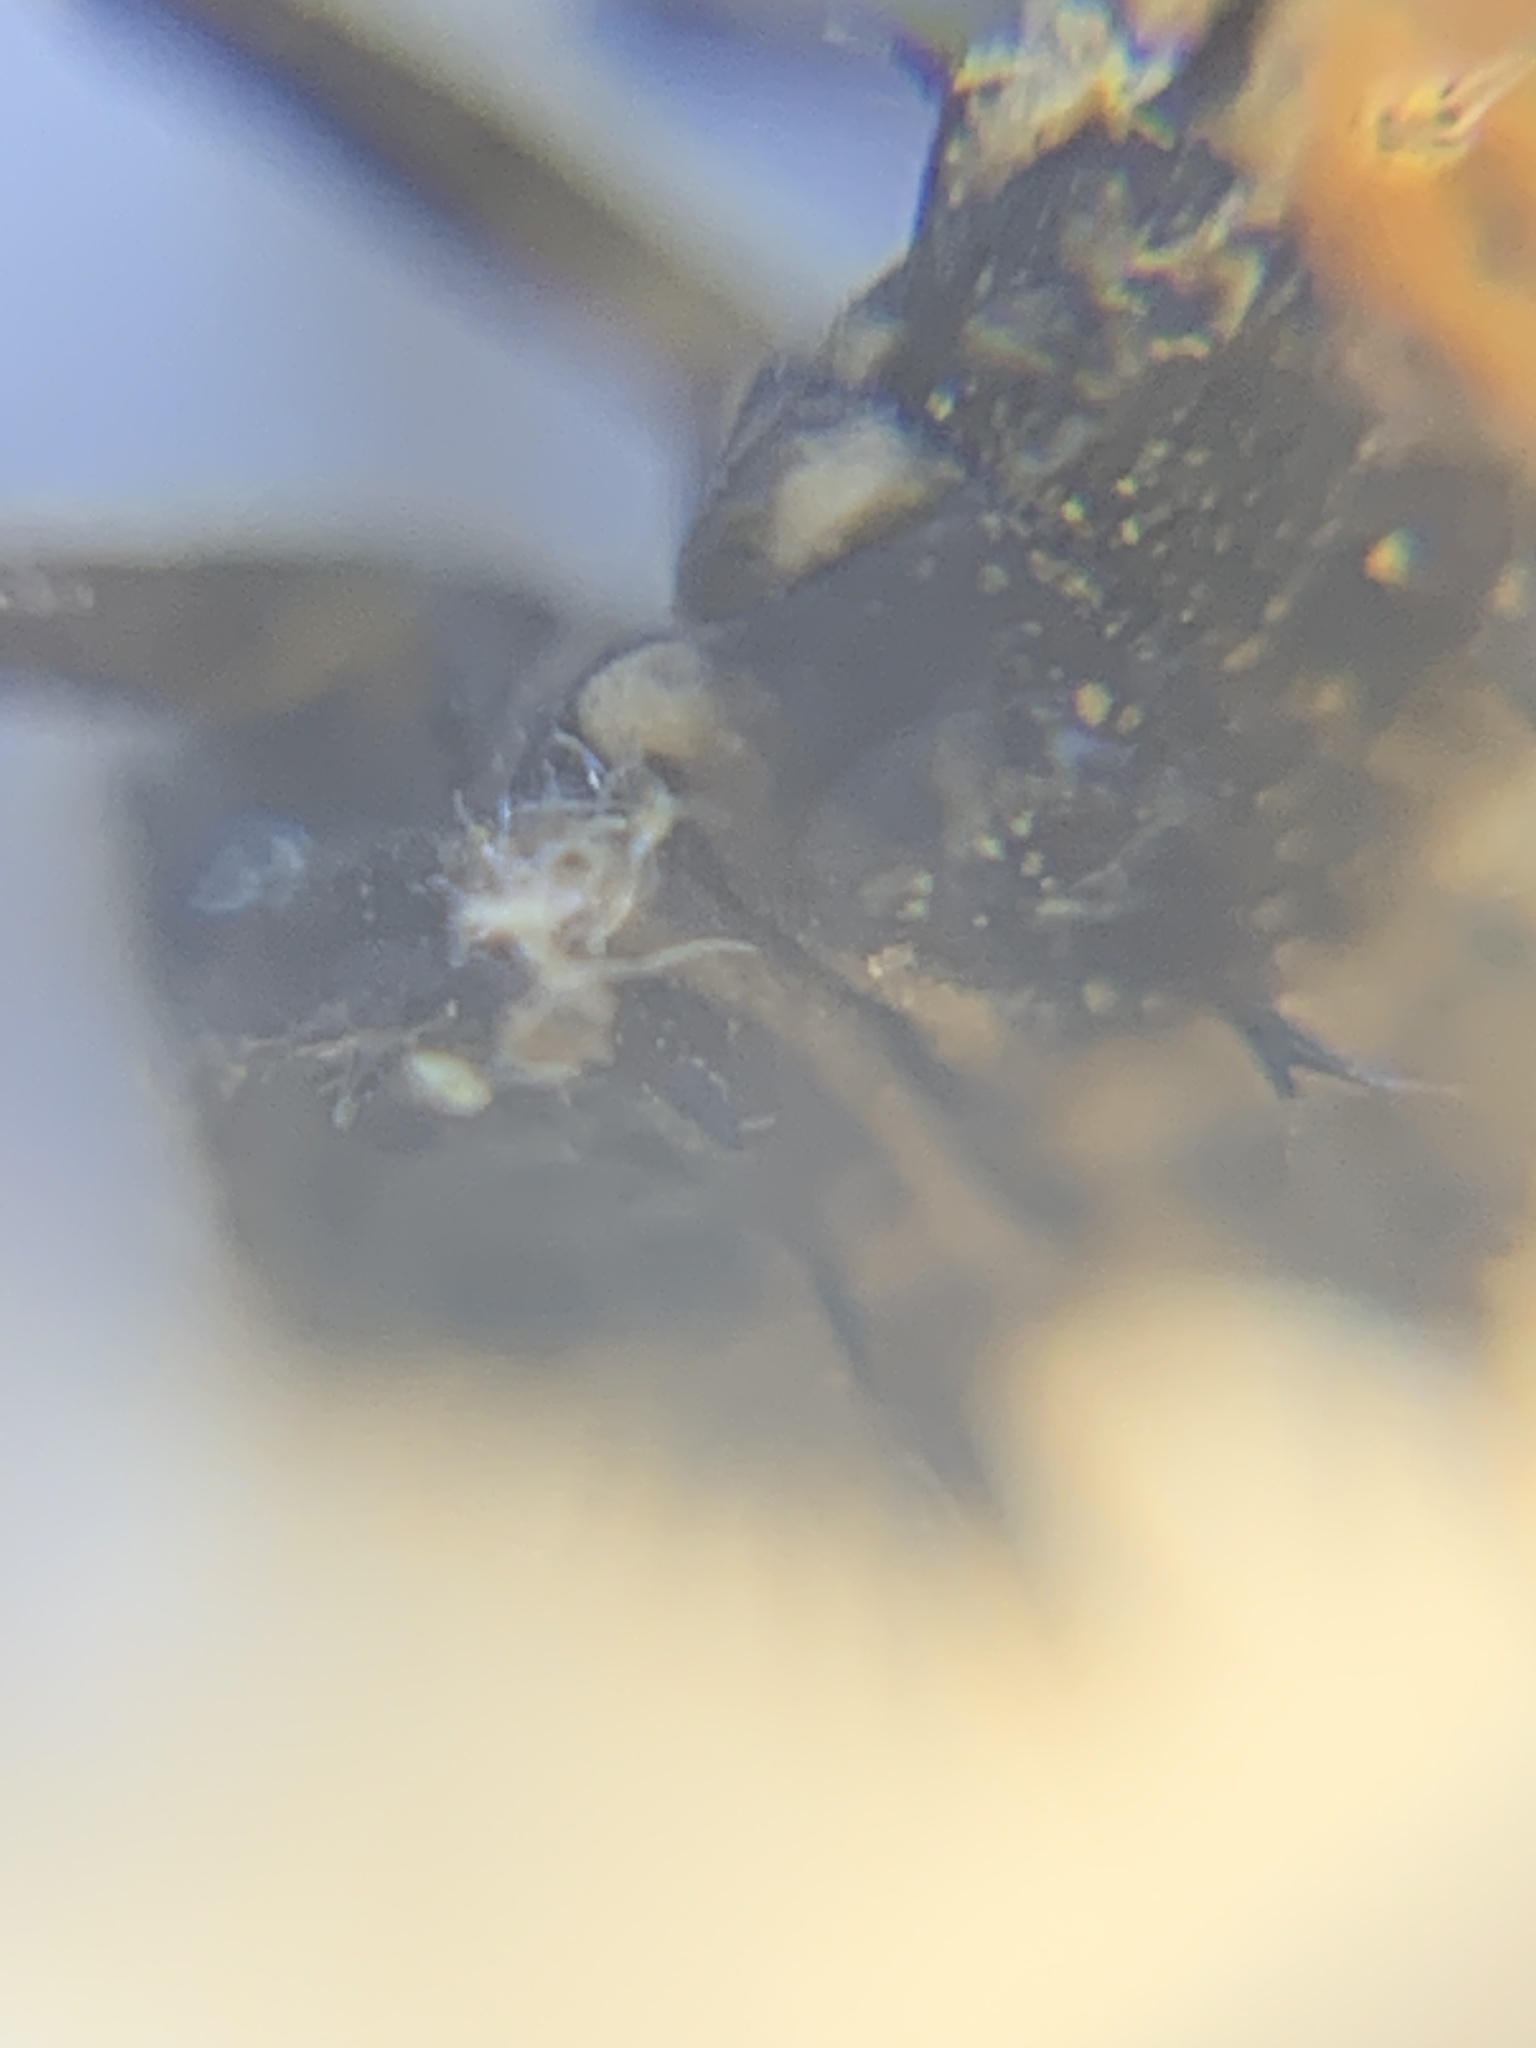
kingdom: Animalia
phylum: Arthropoda
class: Insecta
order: Coleoptera
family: Coccinellidae
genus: Harmonia
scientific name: Harmonia axyridis
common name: Harlequin ladybird
